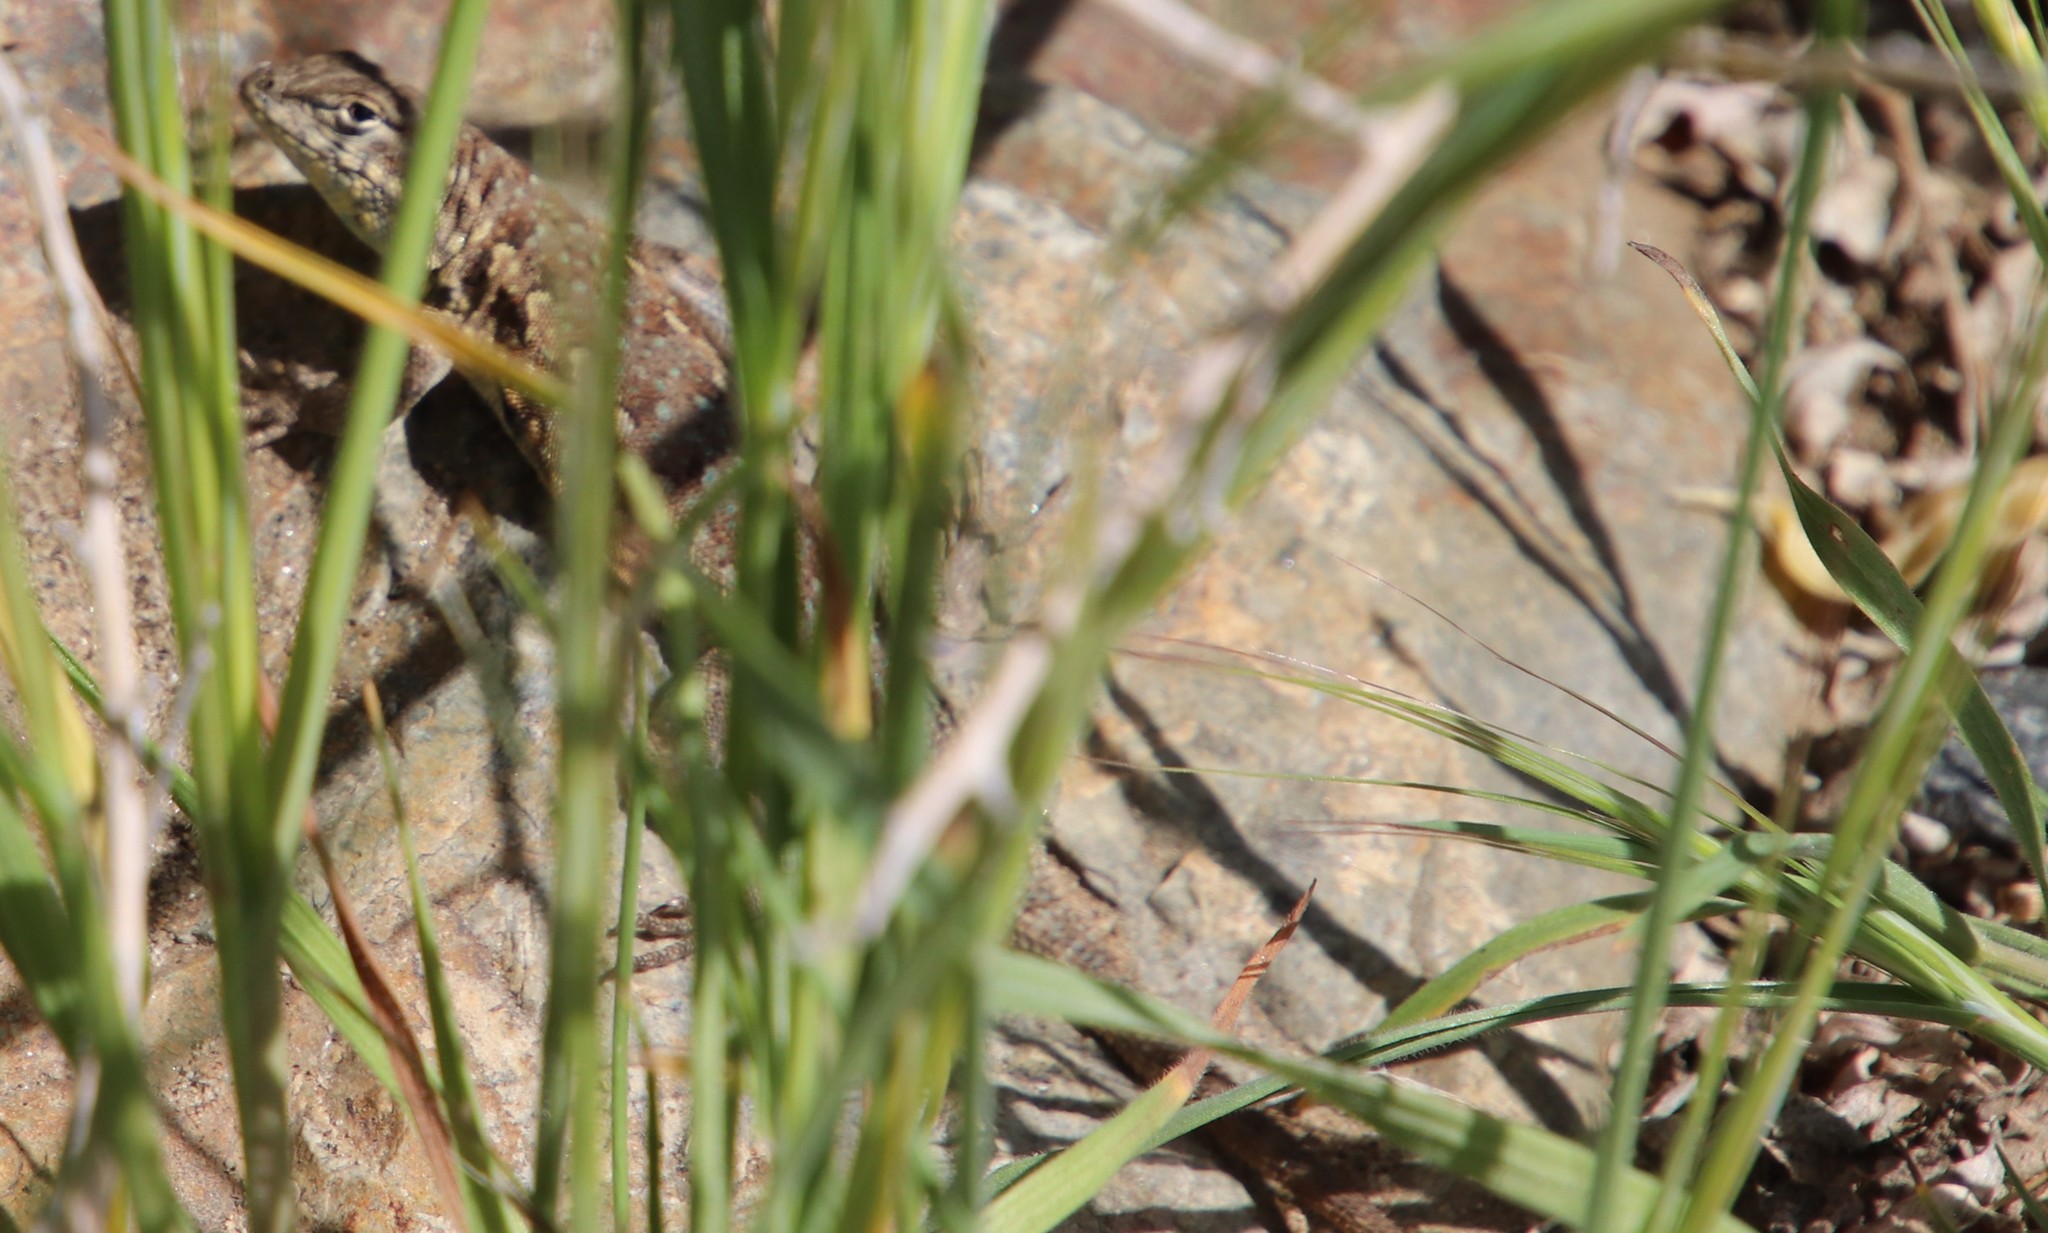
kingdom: Animalia
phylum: Chordata
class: Squamata
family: Phrynosomatidae
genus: Uta
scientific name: Uta stansburiana
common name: Side-blotched lizard
